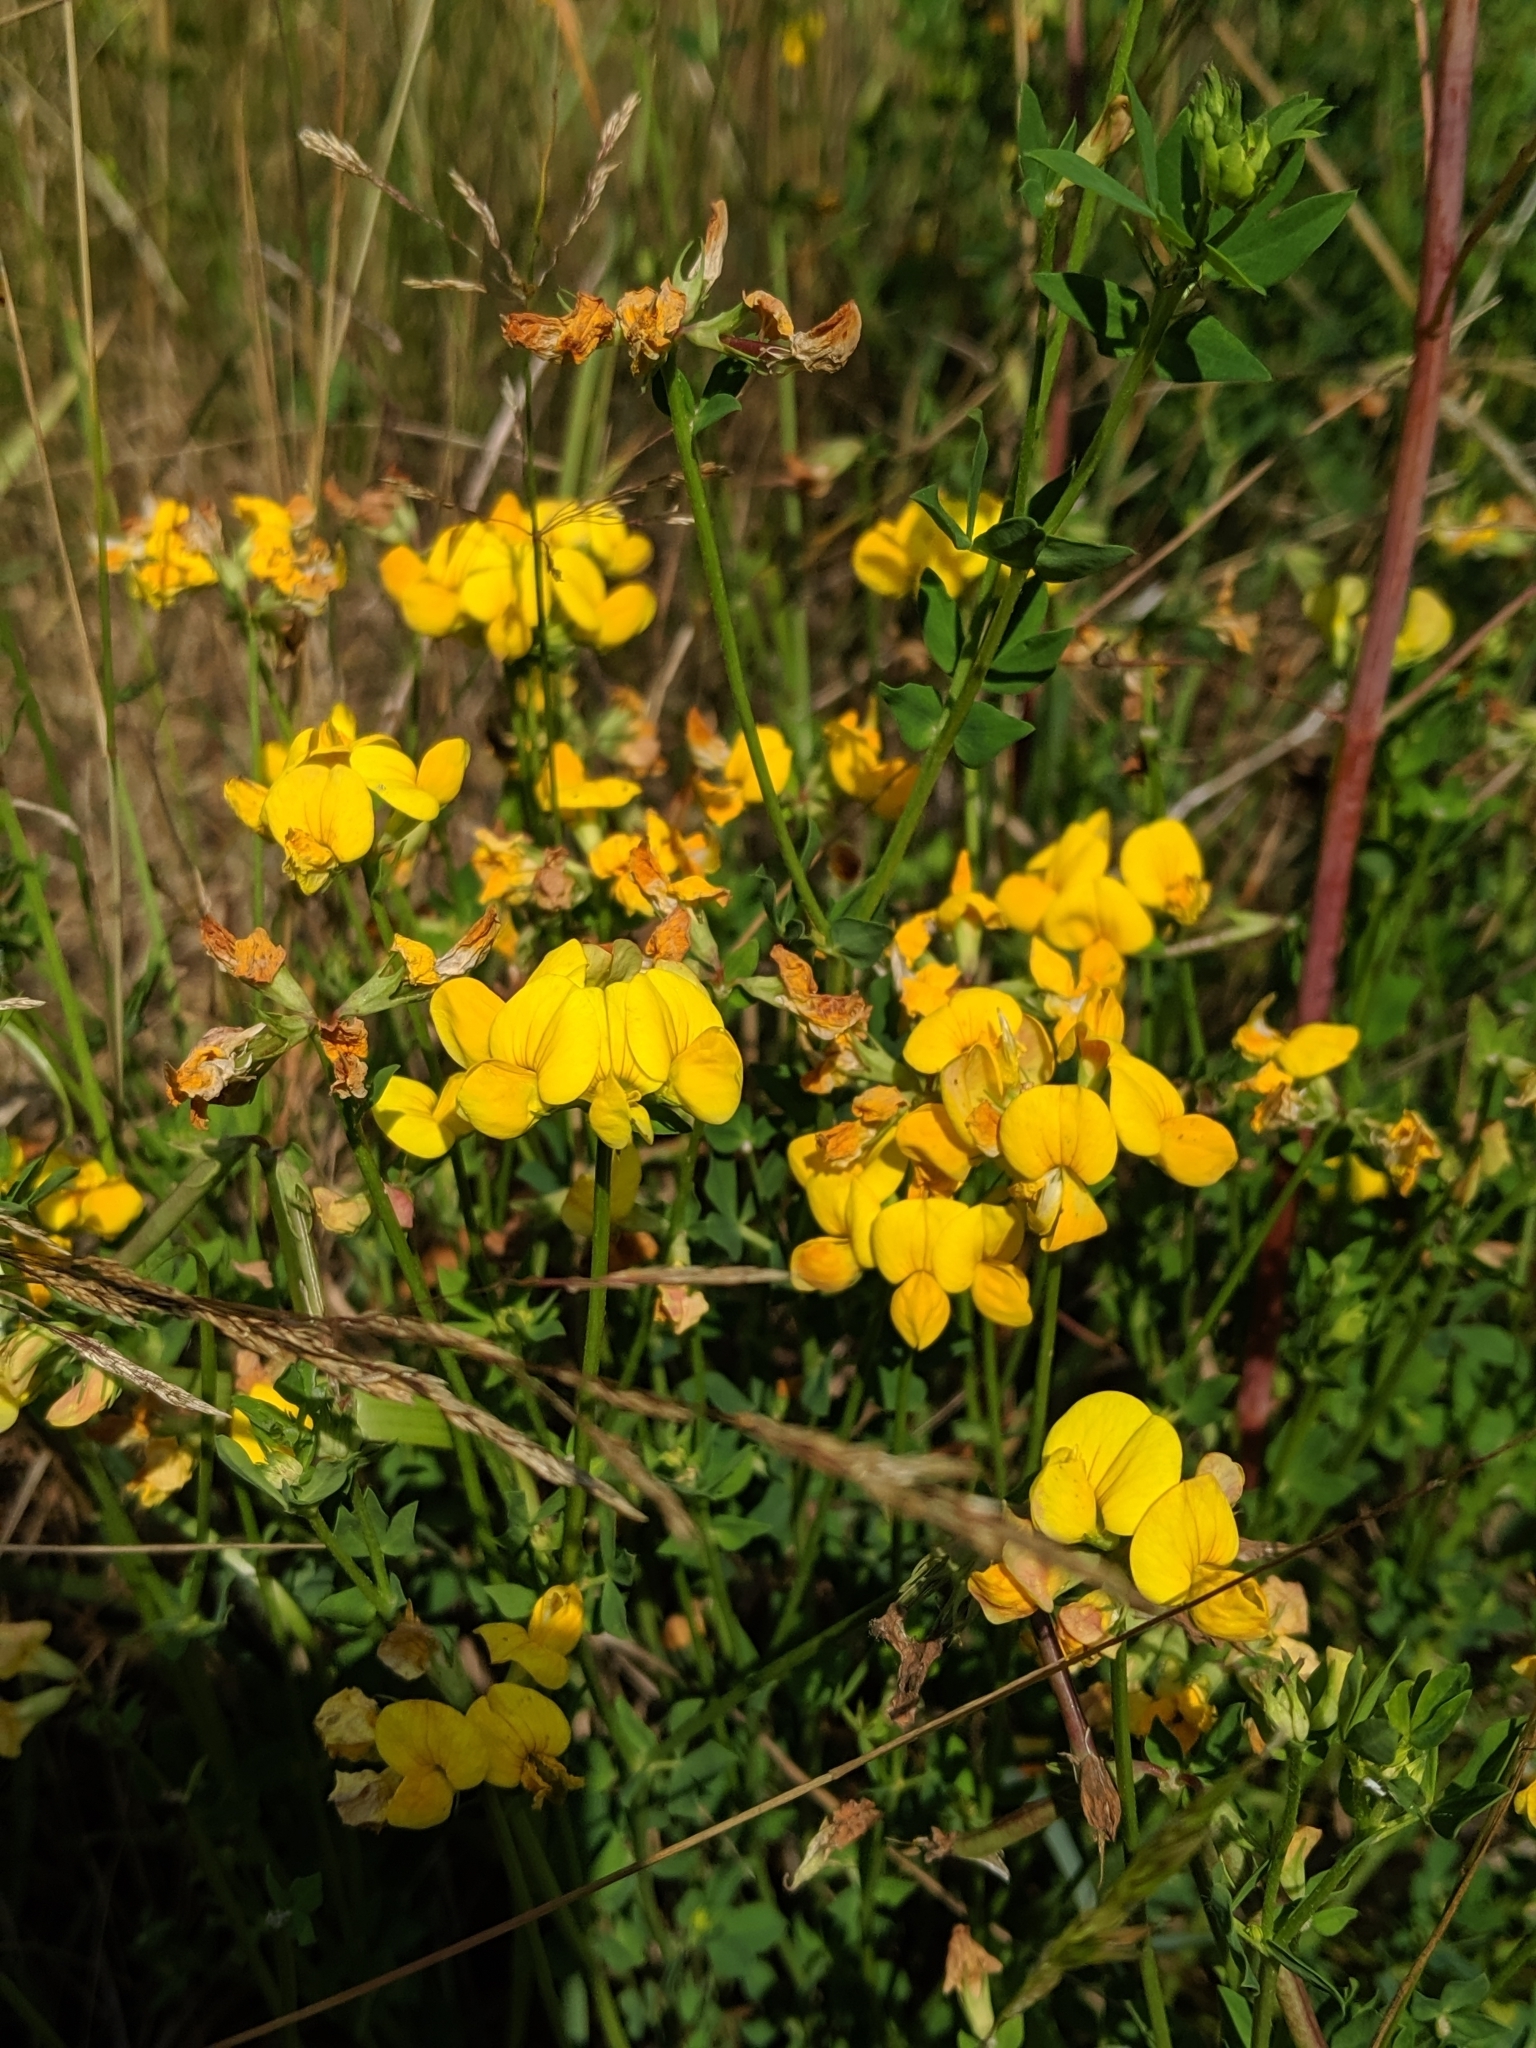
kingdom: Plantae
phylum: Tracheophyta
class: Magnoliopsida
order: Fabales
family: Fabaceae
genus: Lotus
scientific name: Lotus corniculatus
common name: Common bird's-foot-trefoil
